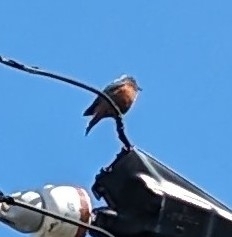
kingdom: Animalia
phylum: Chordata
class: Aves
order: Passeriformes
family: Muscicapidae
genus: Monticola
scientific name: Monticola solitarius
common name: Blue rock thrush
